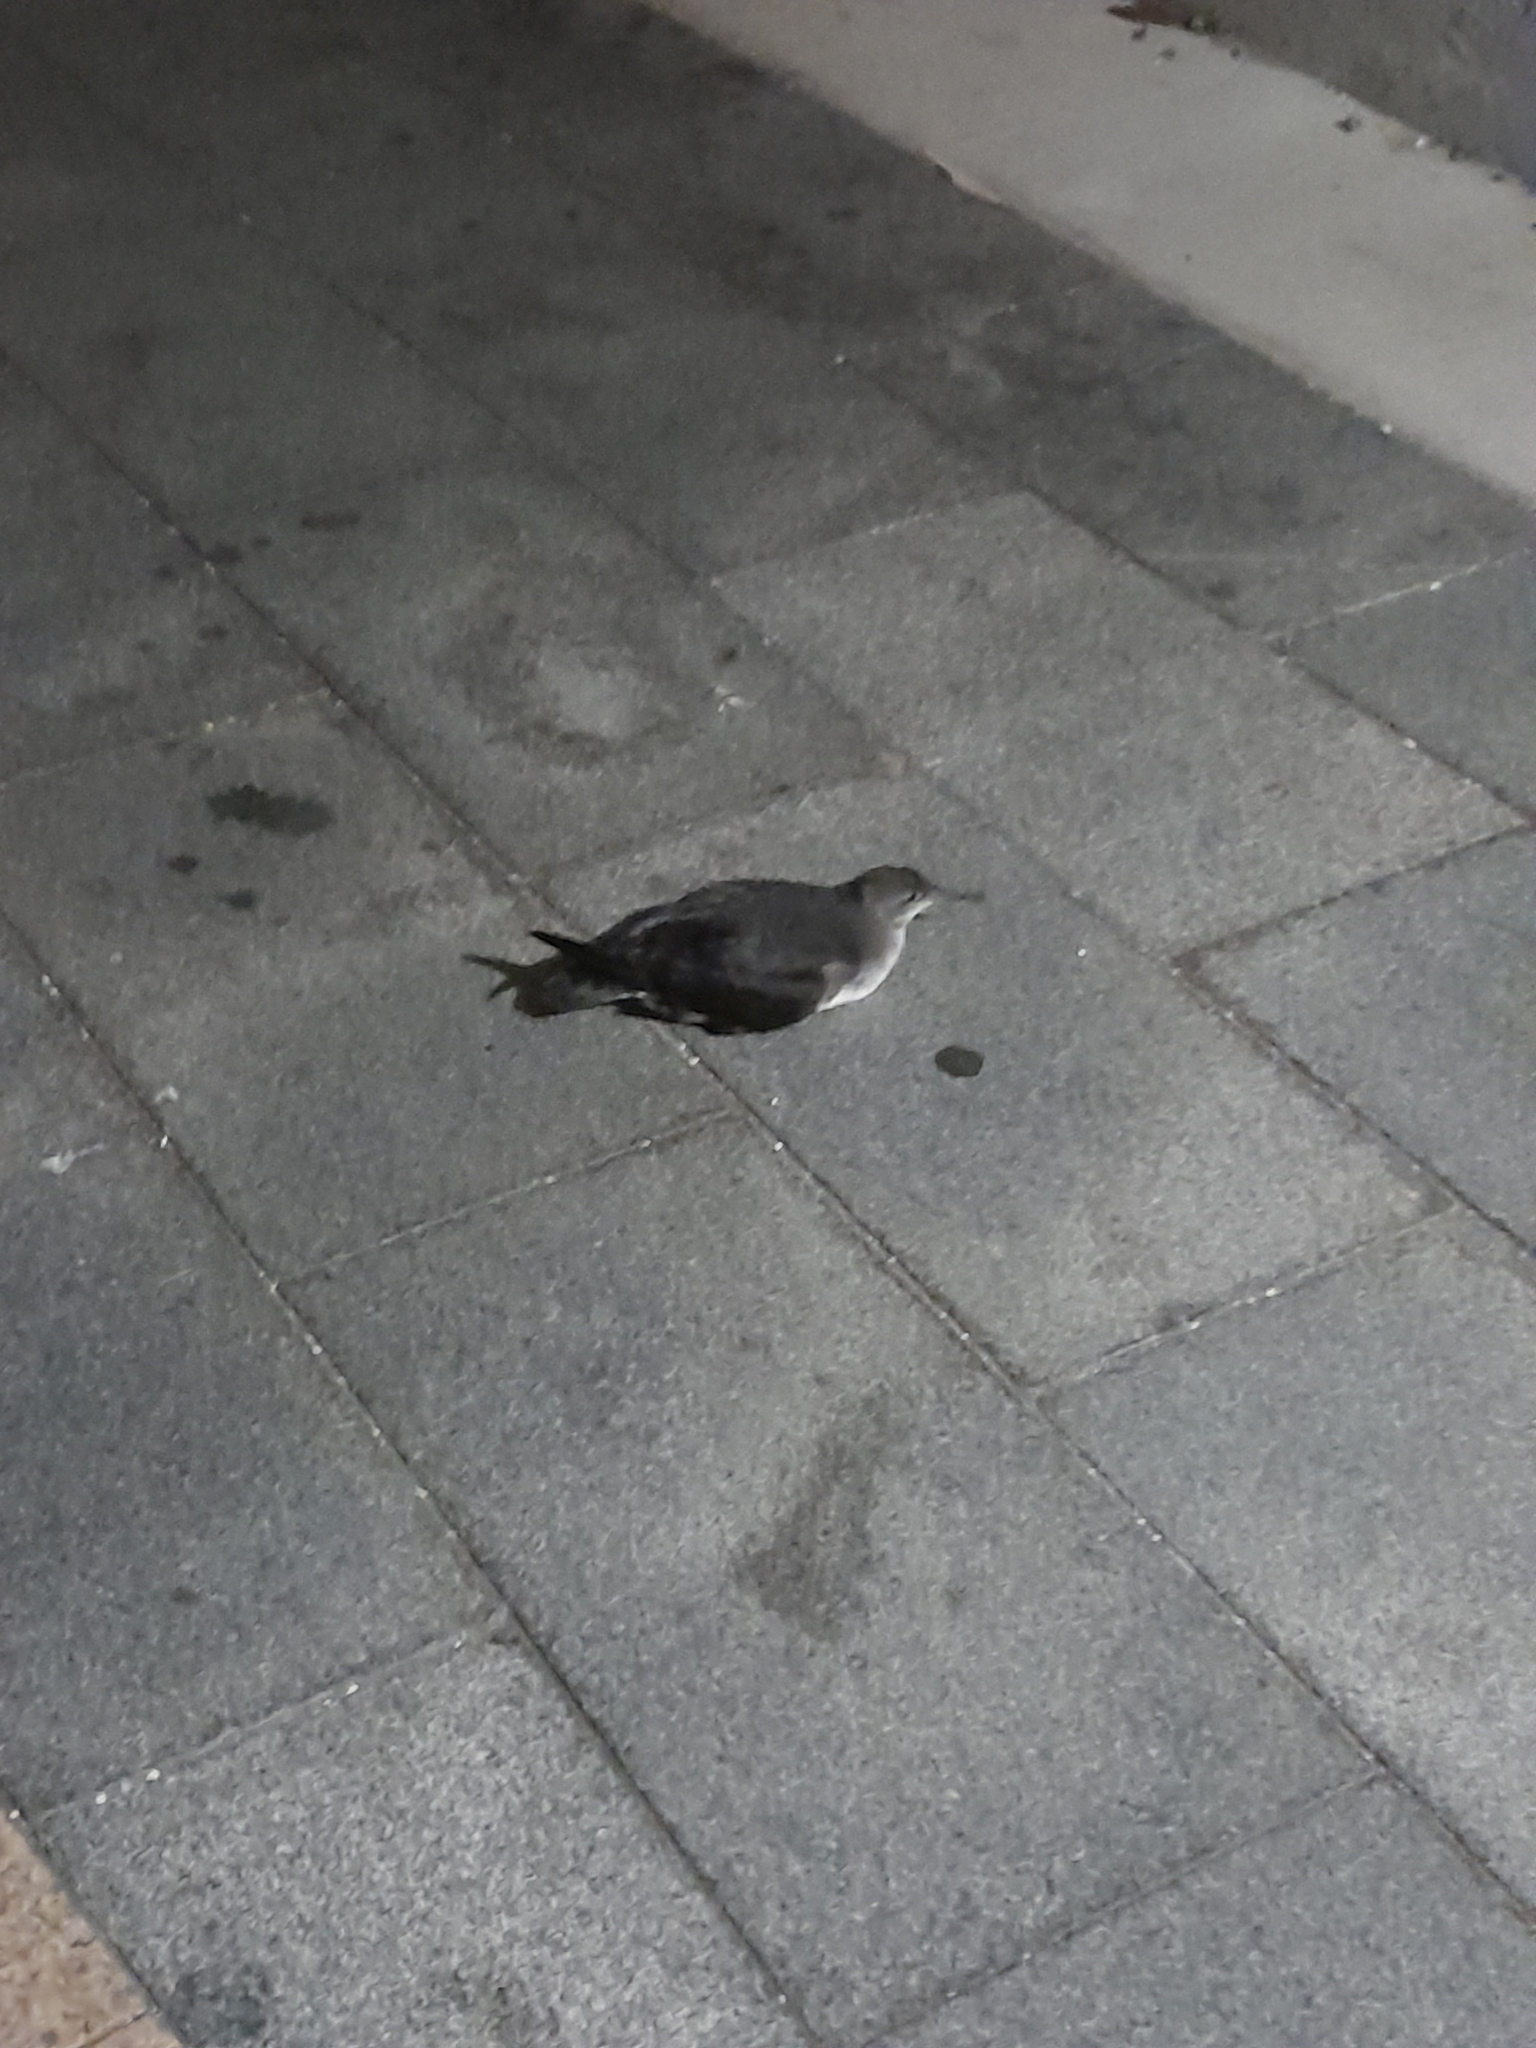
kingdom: Animalia
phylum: Chordata
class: Aves
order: Procellariiformes
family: Procellariidae
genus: Puffinus
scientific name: Puffinus huttoni
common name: Hutton's shearwater
